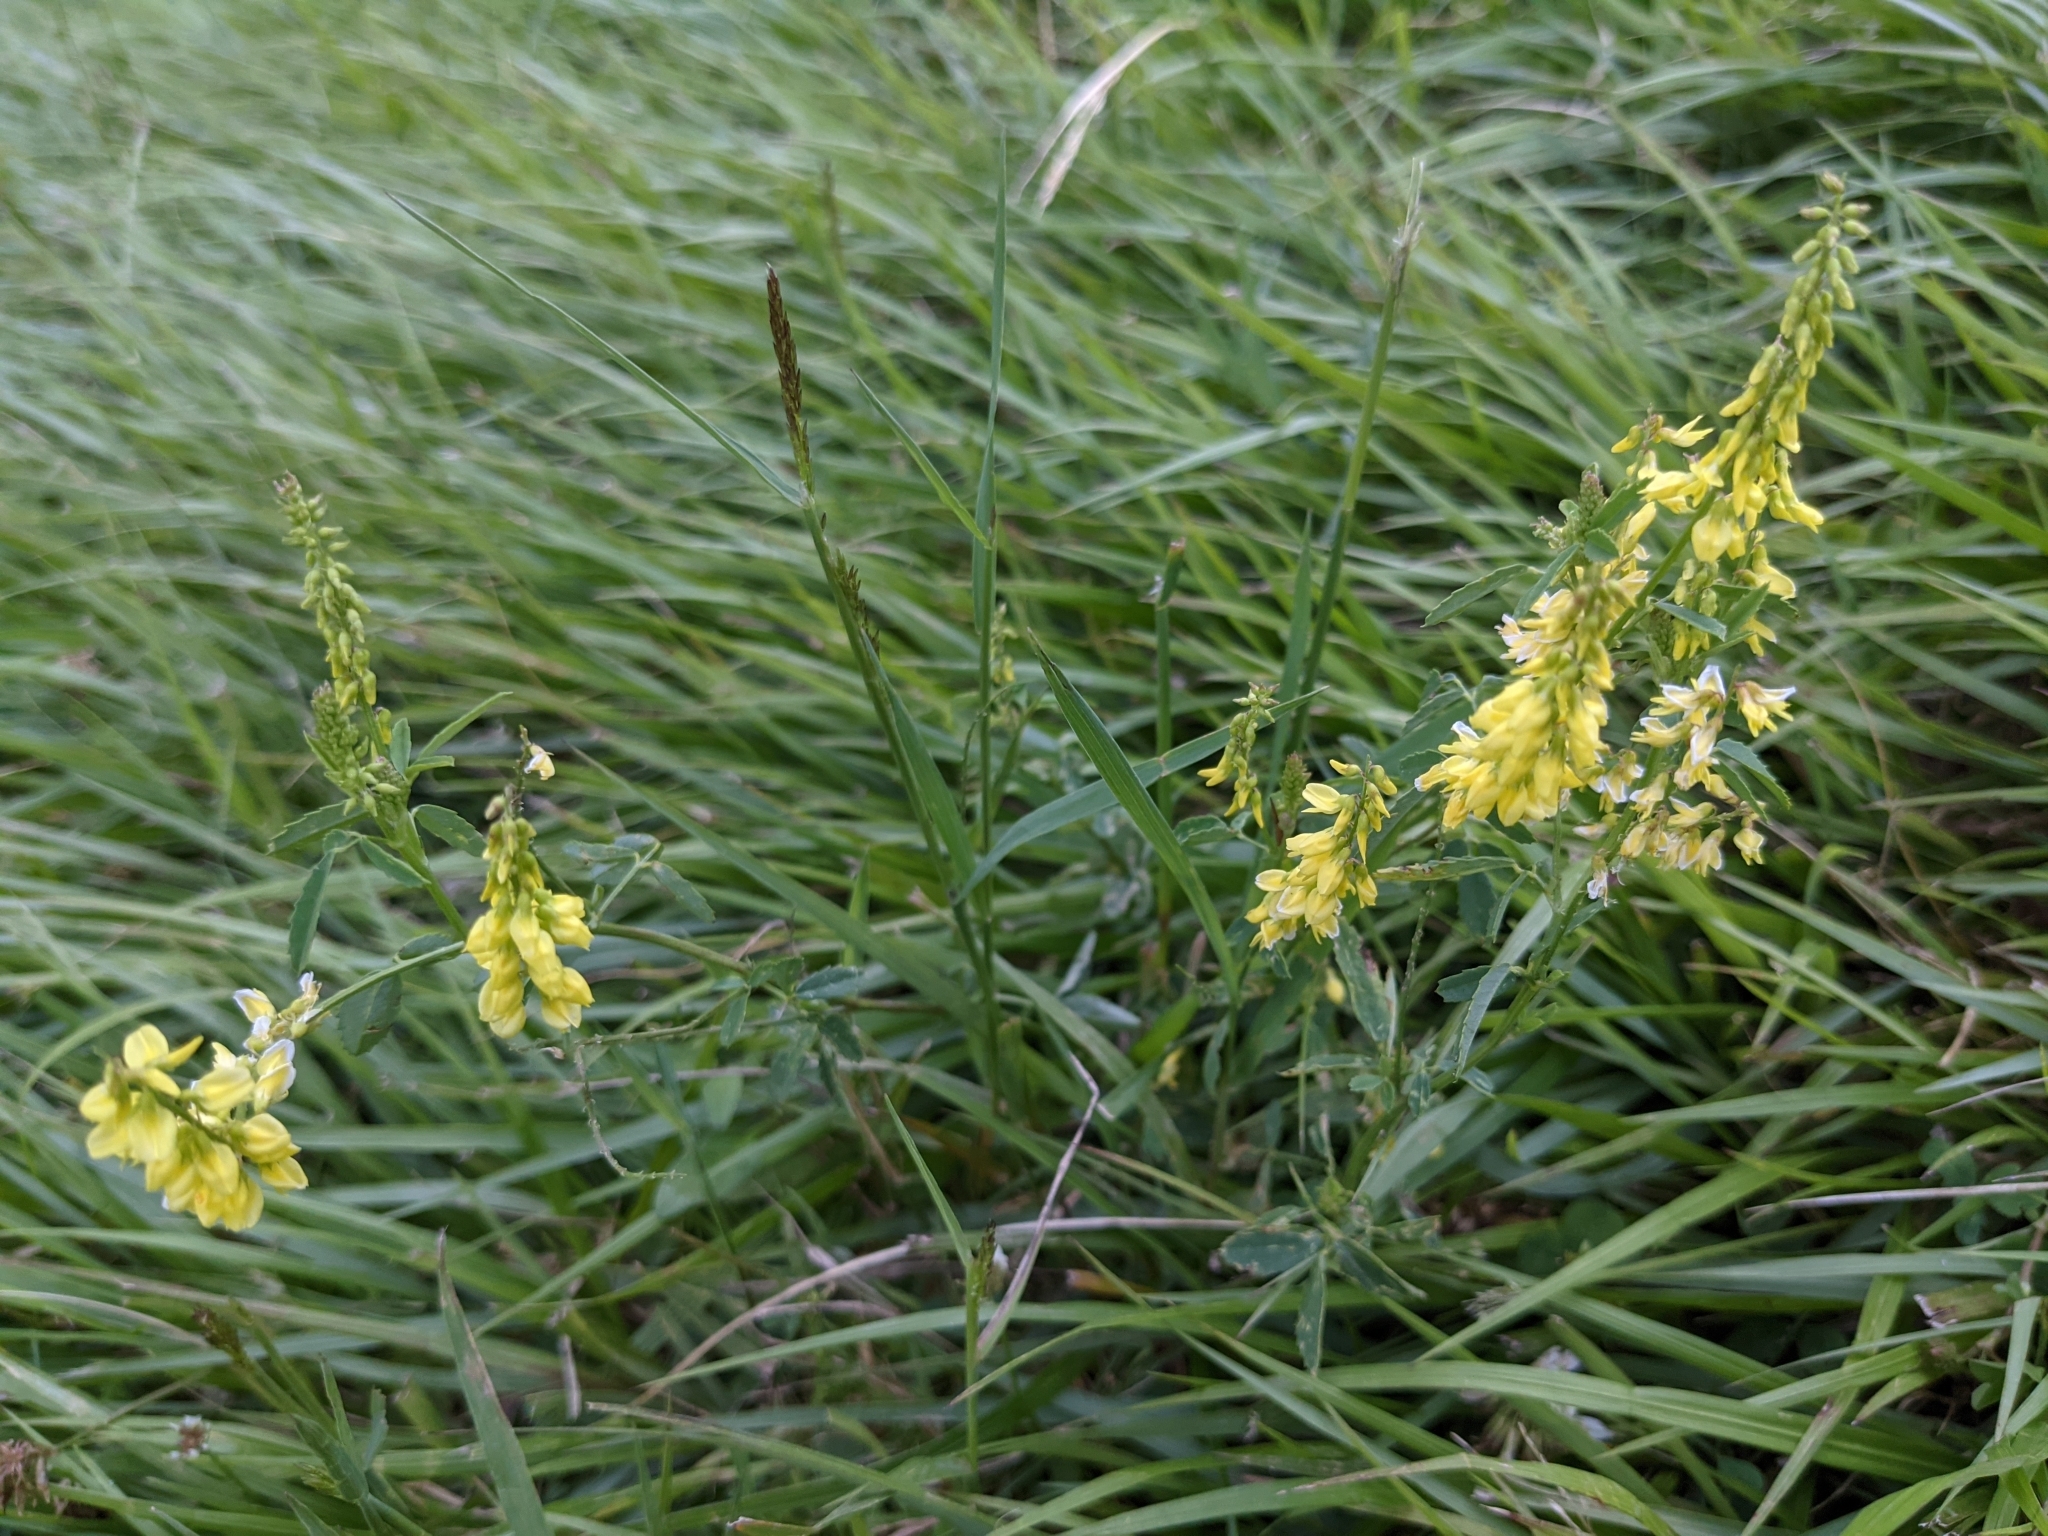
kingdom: Plantae
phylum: Tracheophyta
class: Magnoliopsida
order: Fabales
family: Fabaceae
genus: Melilotus
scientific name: Melilotus officinalis
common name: Sweetclover
